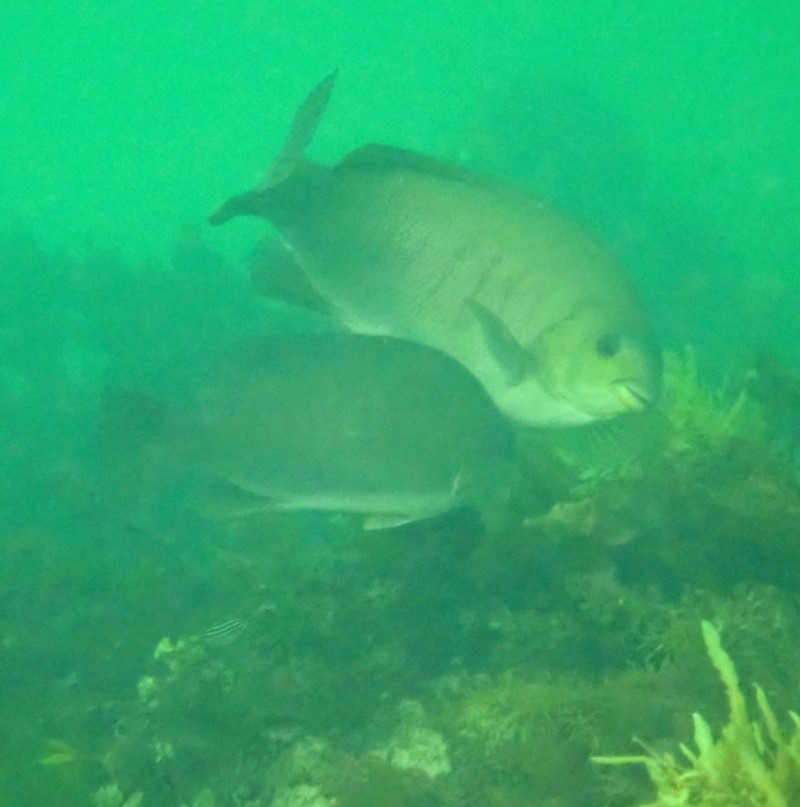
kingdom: Animalia
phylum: Chordata
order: Perciformes
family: Kyphosidae
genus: Girella
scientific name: Girella tricuspidata
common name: Parore
